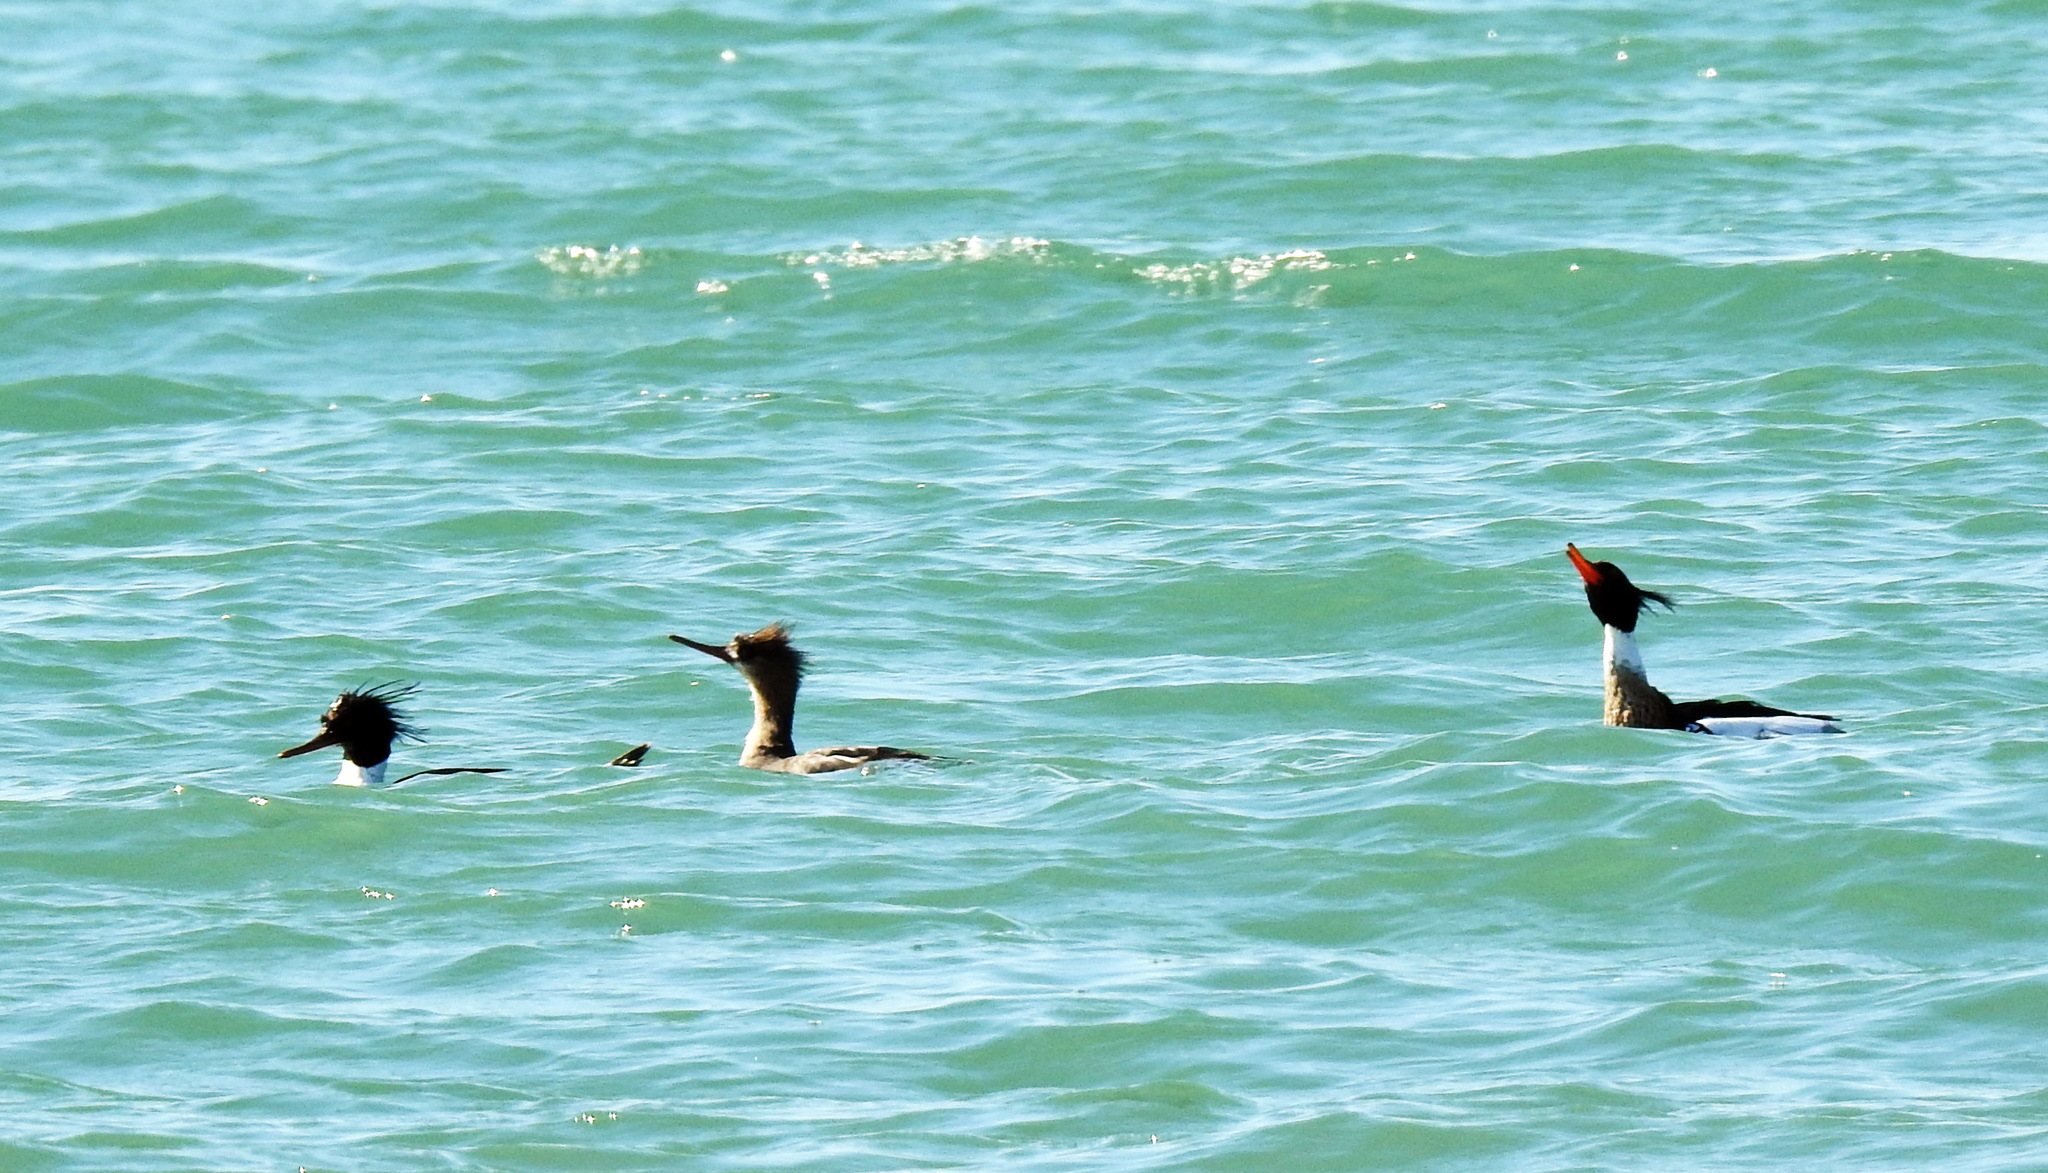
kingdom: Animalia
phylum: Chordata
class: Aves
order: Anseriformes
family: Anatidae
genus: Mergus
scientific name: Mergus serrator
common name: Red-breasted merganser
